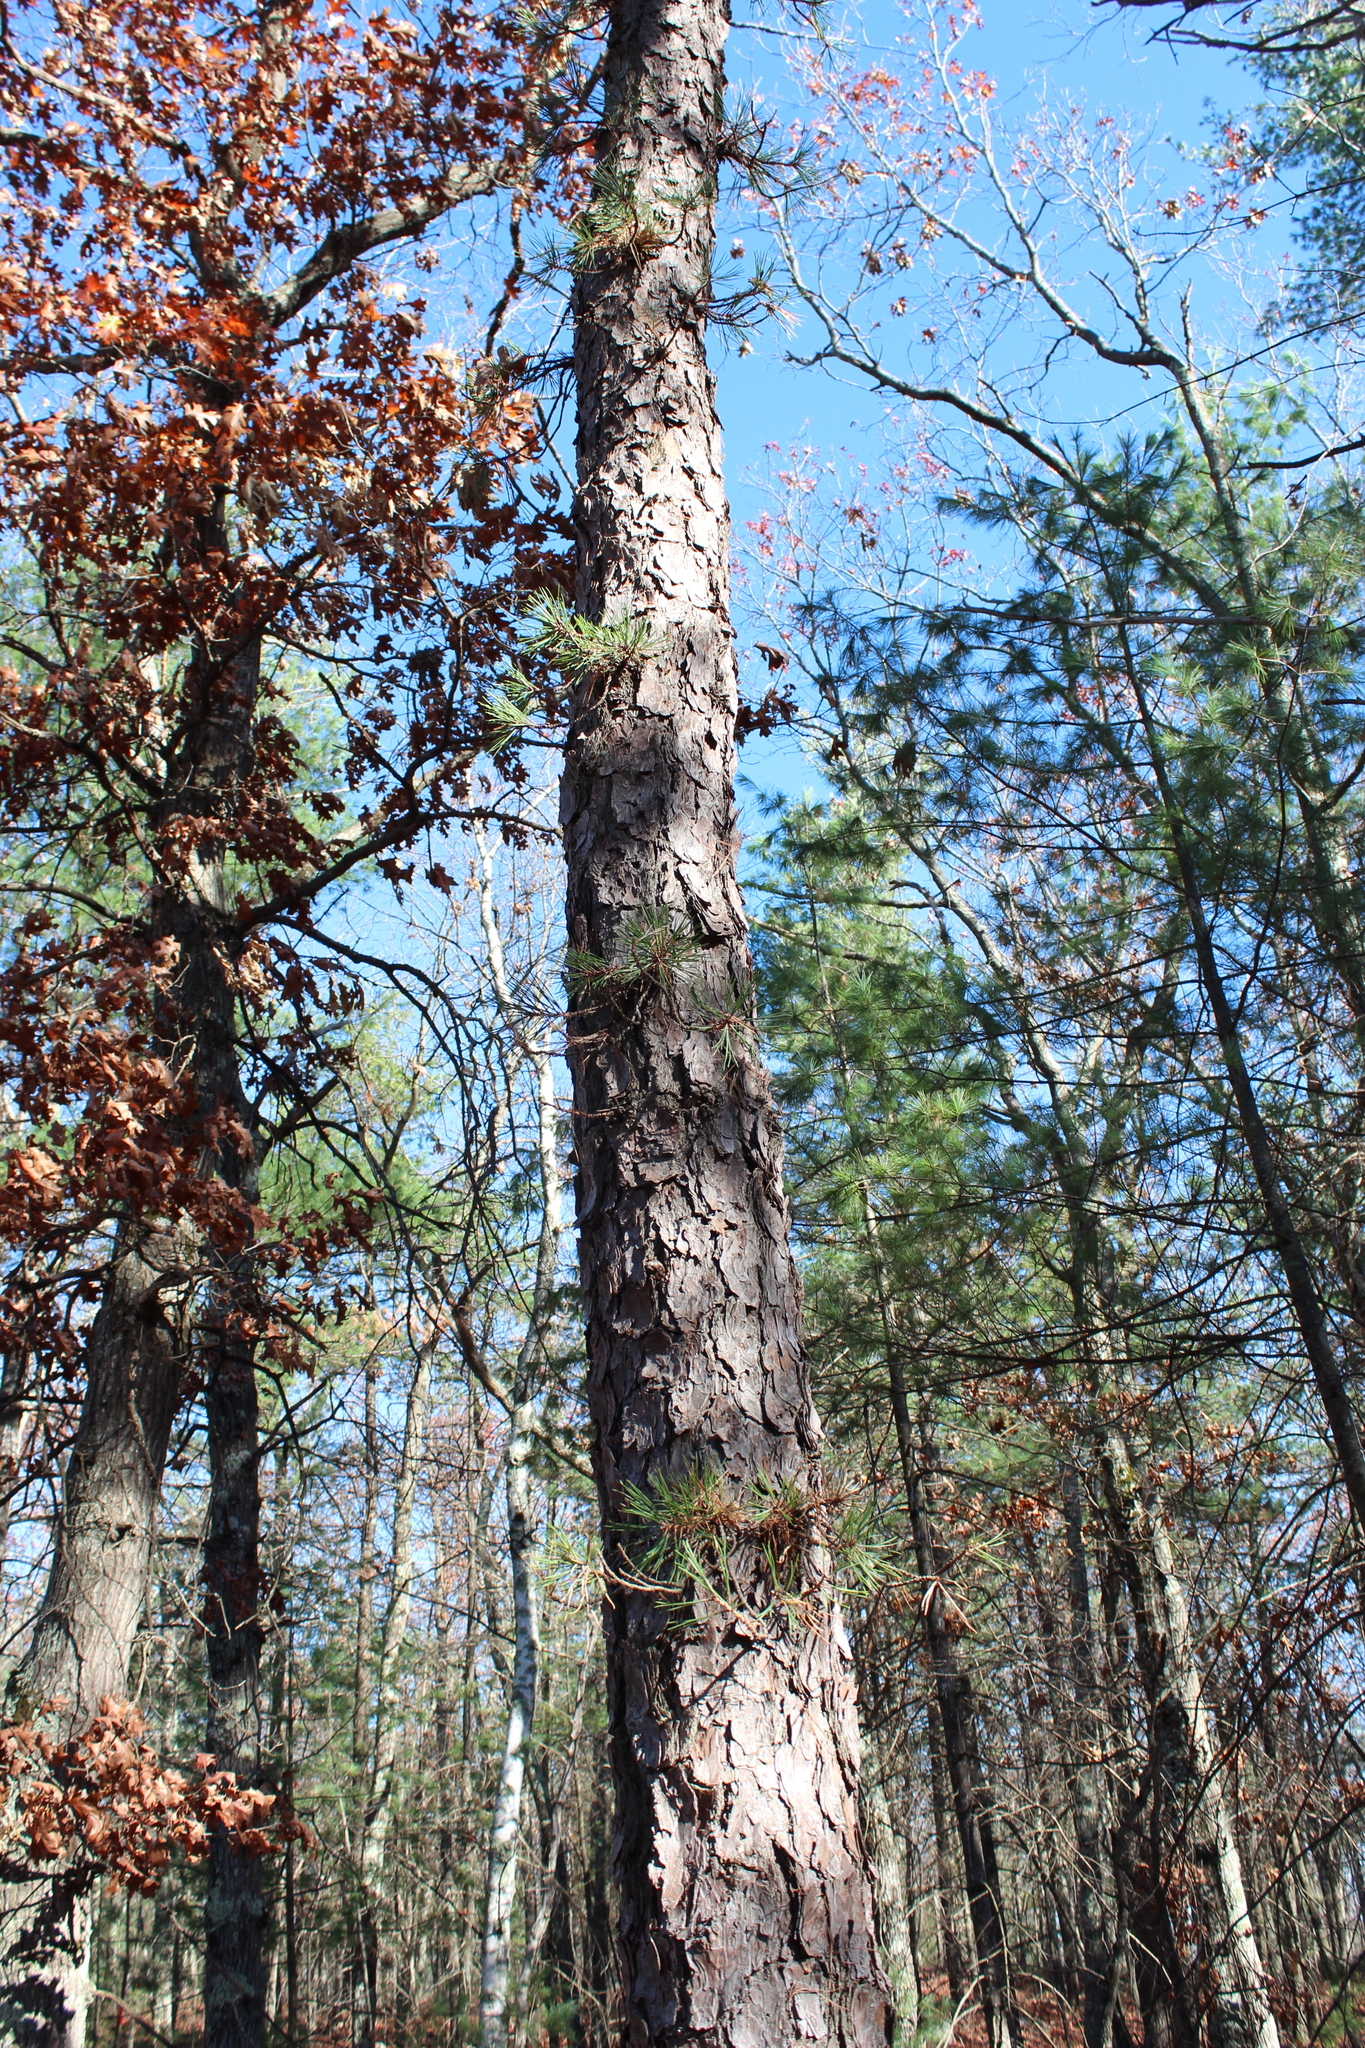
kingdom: Plantae
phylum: Tracheophyta
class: Pinopsida
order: Pinales
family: Pinaceae
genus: Pinus
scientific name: Pinus rigida
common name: Pitch pine
